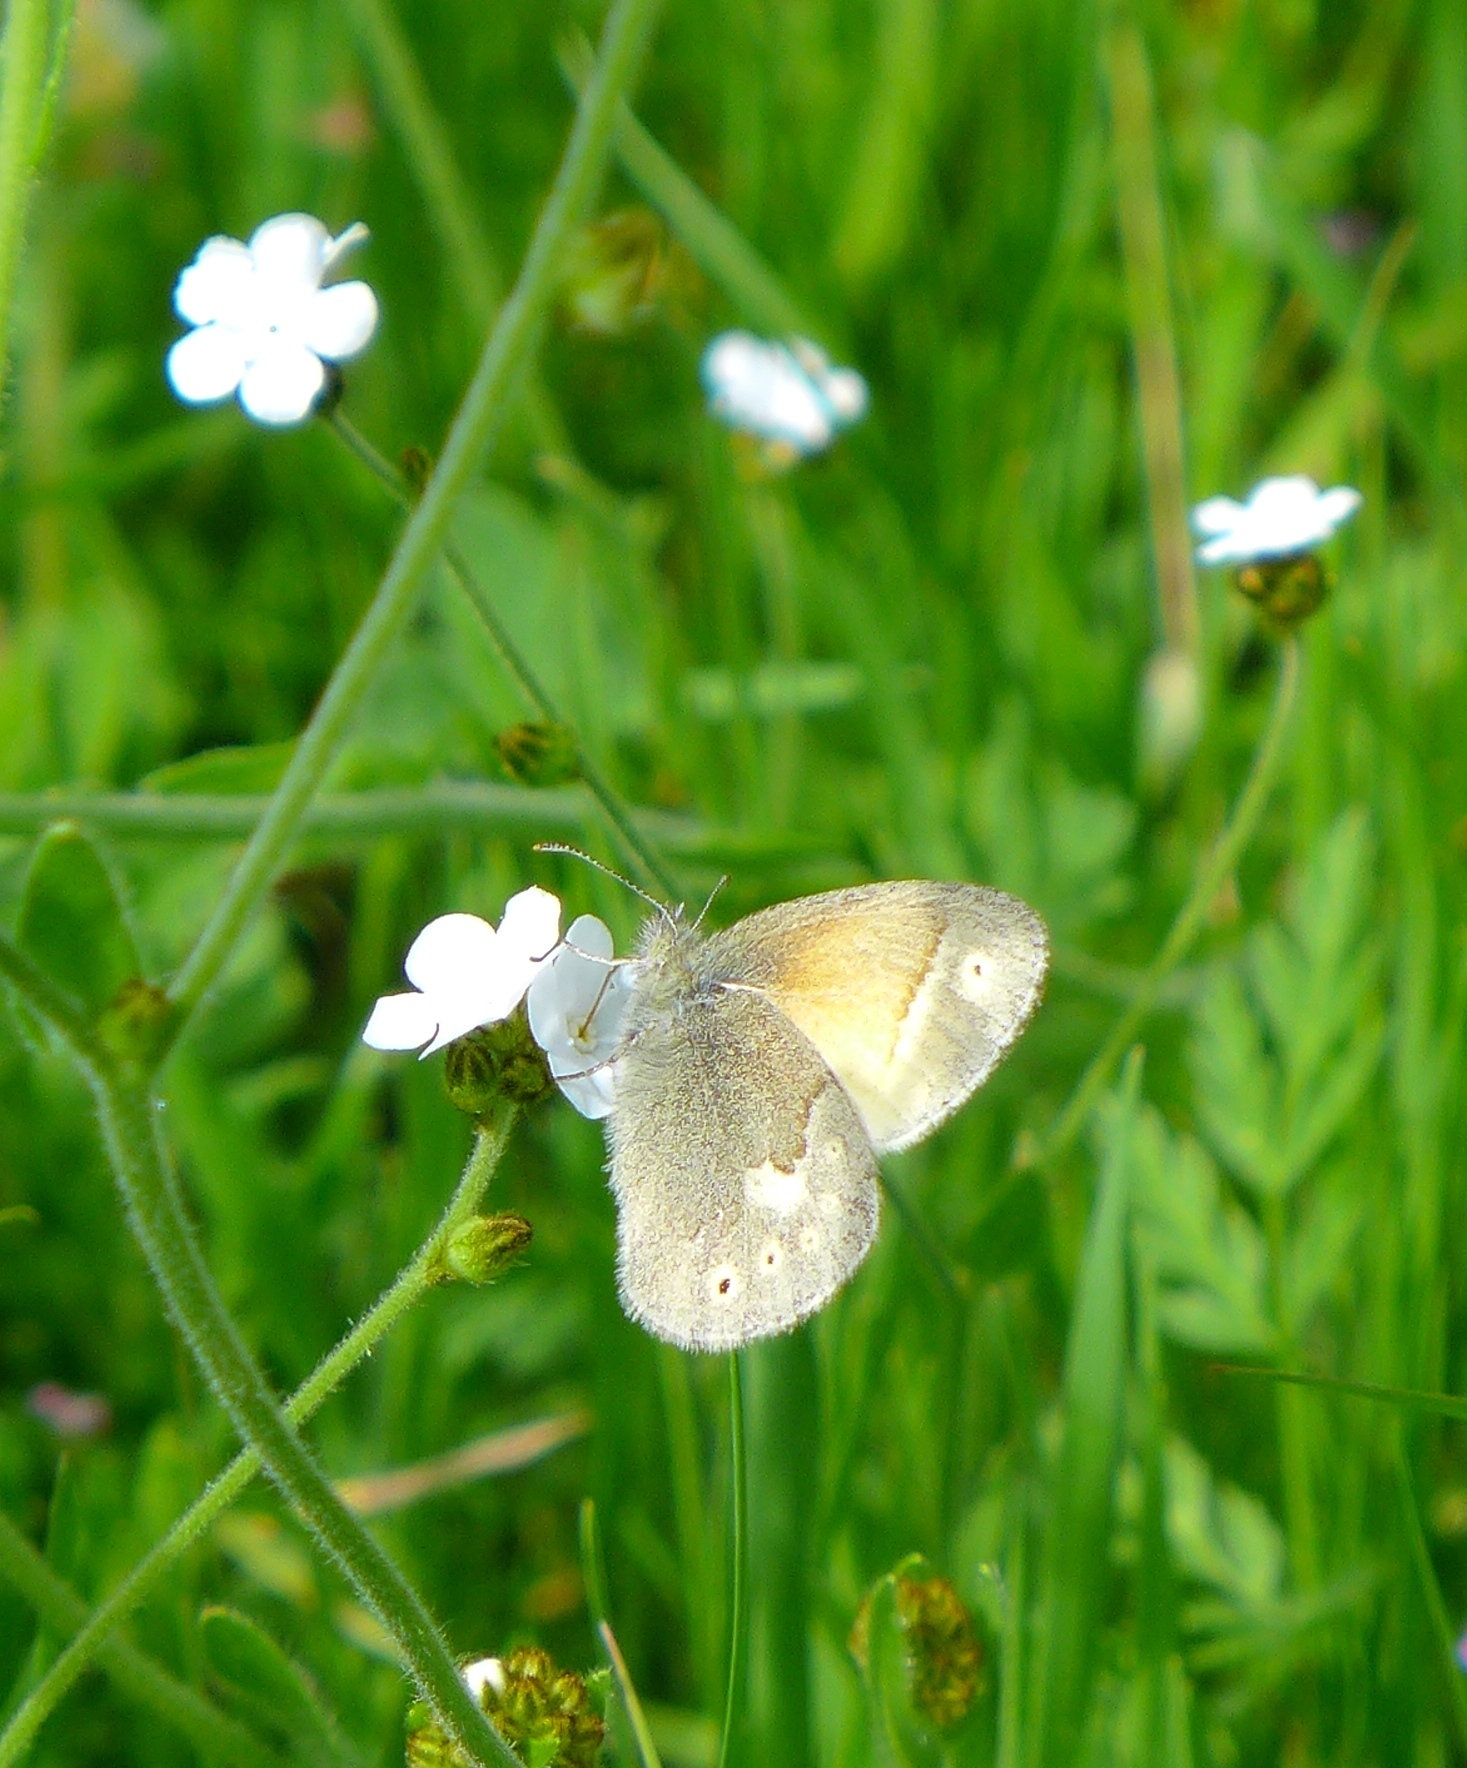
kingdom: Animalia
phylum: Arthropoda
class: Insecta
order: Lepidoptera
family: Nymphalidae
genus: Coenonympha
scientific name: Coenonympha california
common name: Common ringlet
